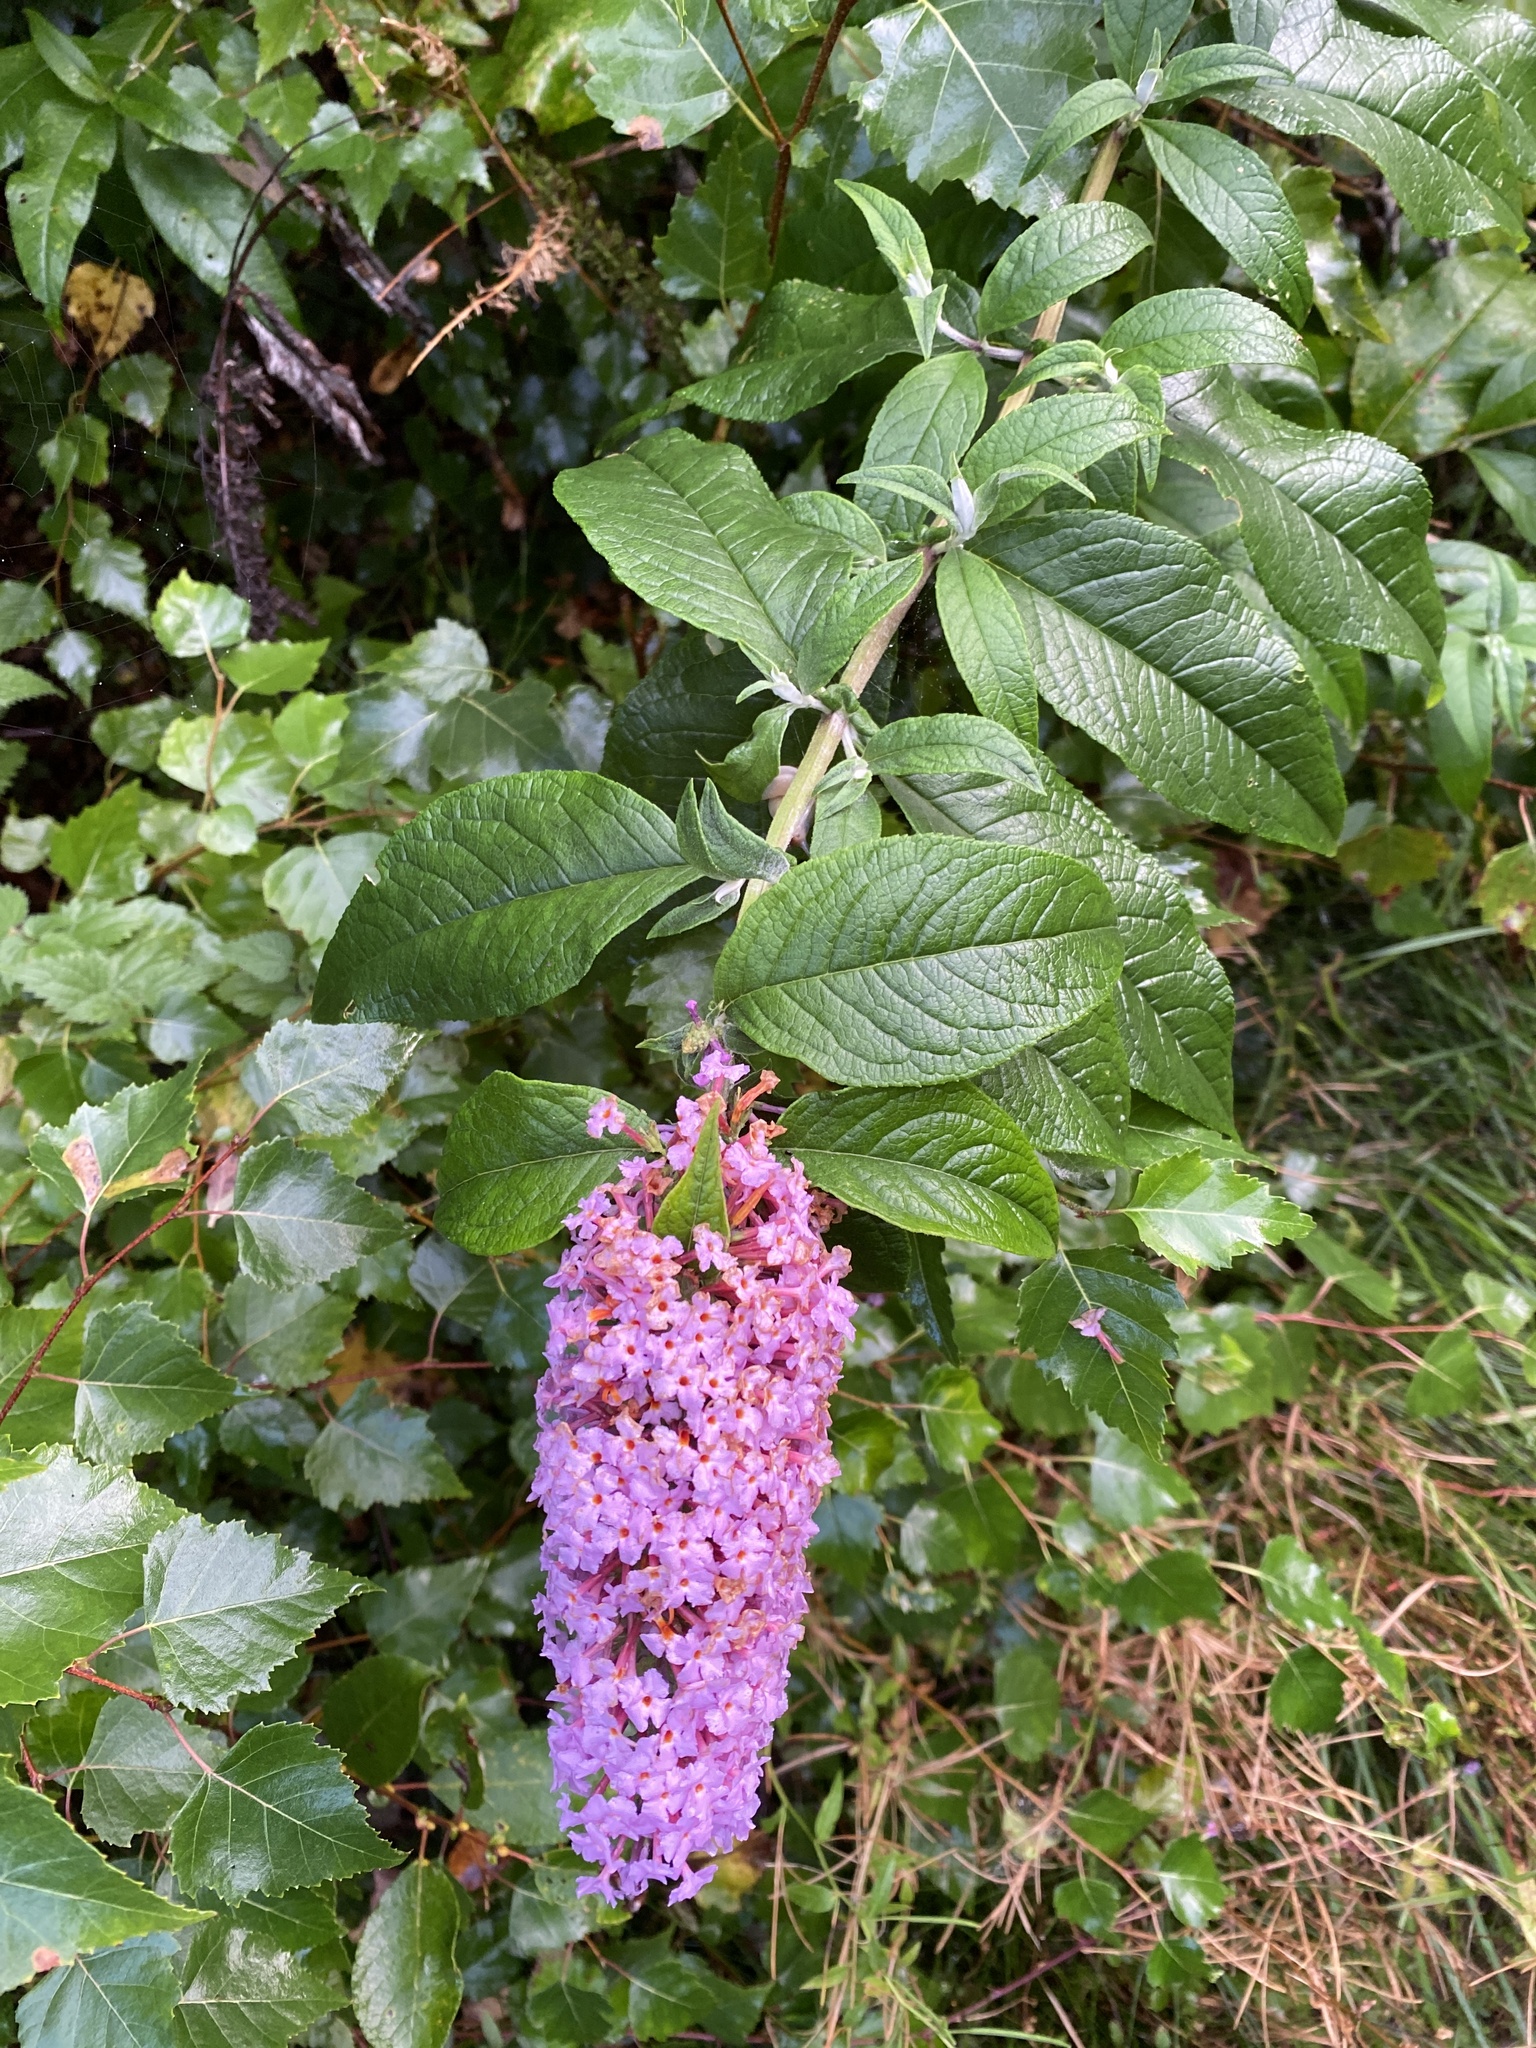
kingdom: Plantae
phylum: Tracheophyta
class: Magnoliopsida
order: Lamiales
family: Scrophulariaceae
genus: Buddleja
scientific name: Buddleja davidii
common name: Butterfly-bush
